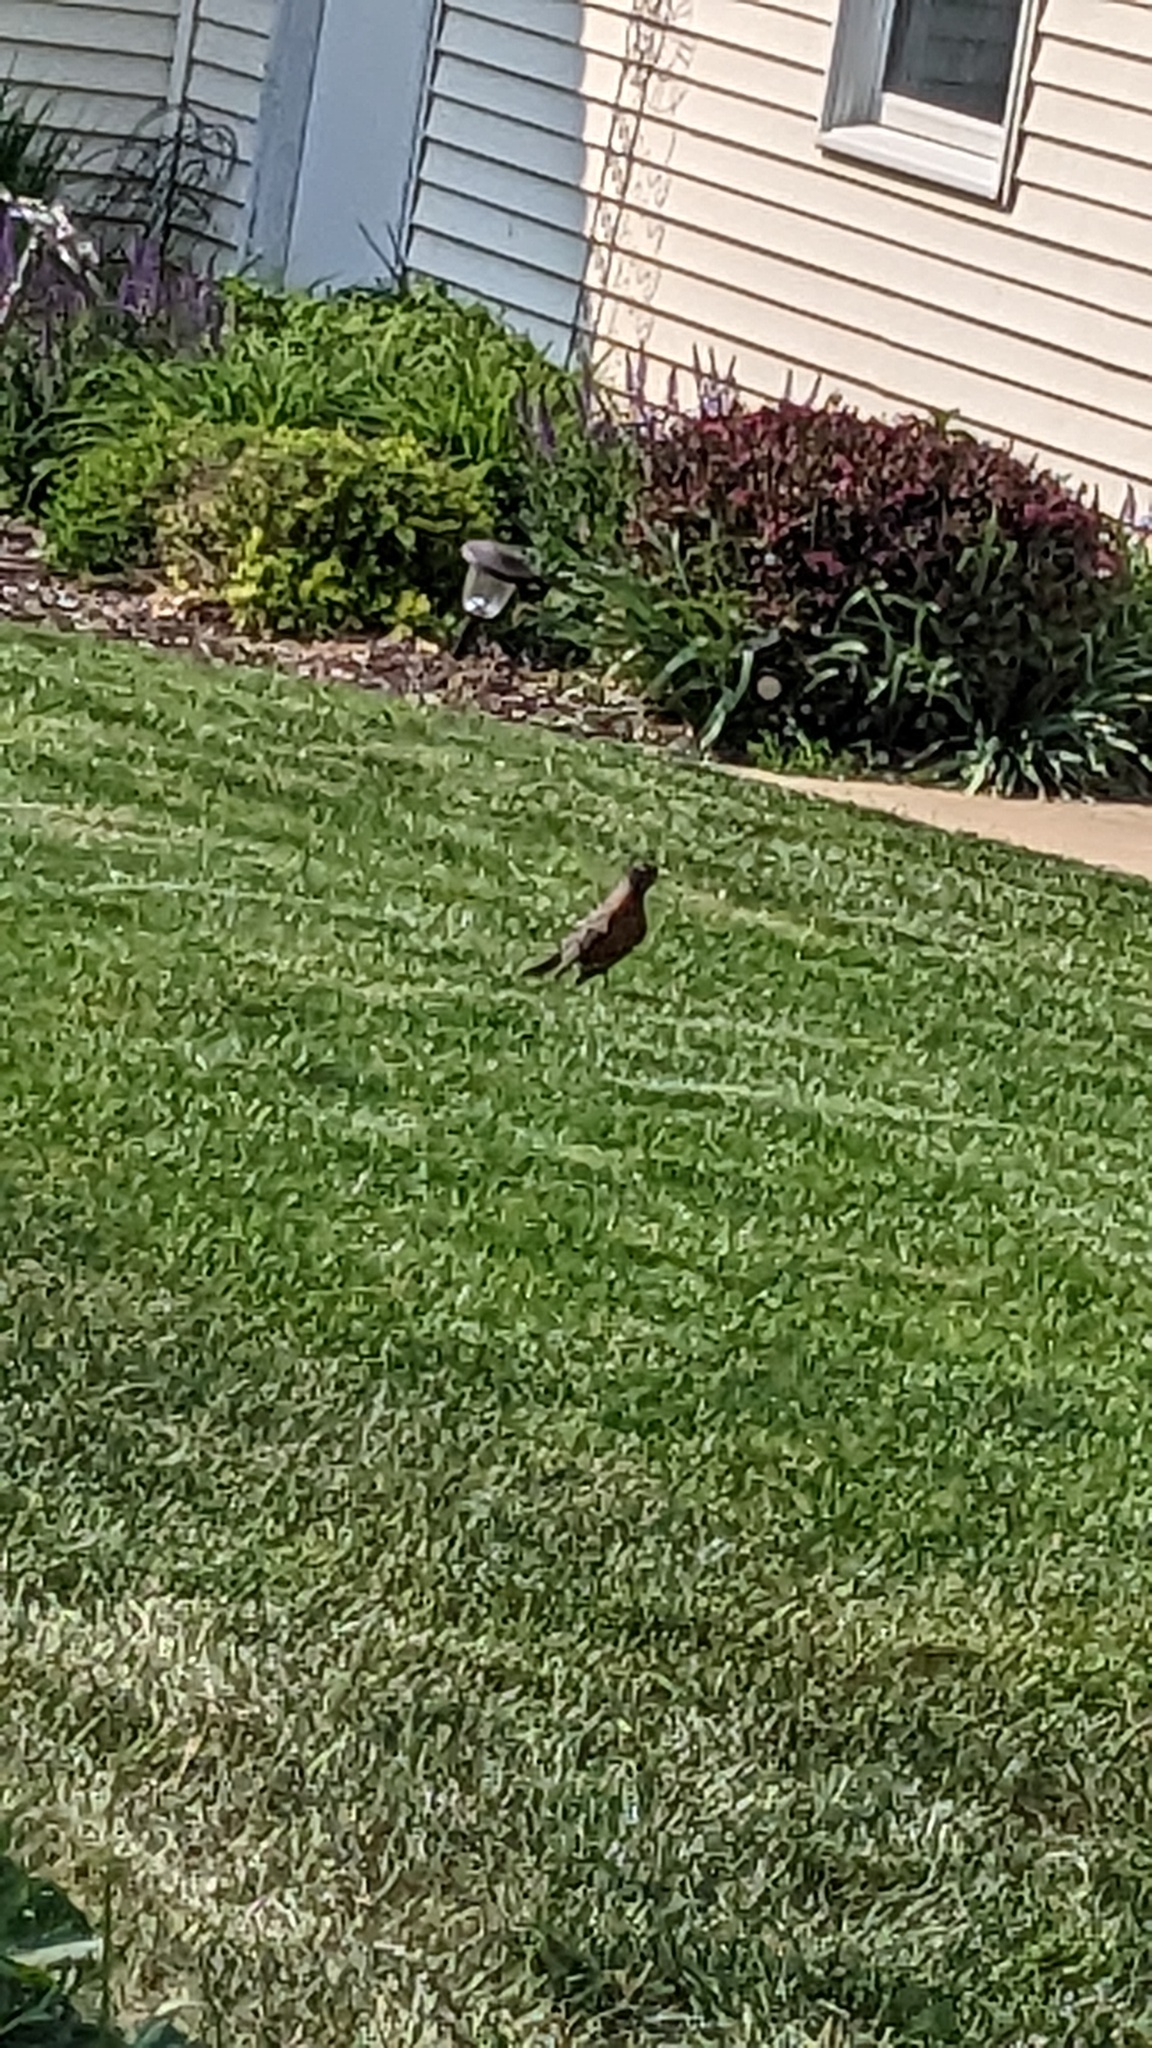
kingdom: Animalia
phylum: Chordata
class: Aves
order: Passeriformes
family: Turdidae
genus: Turdus
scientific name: Turdus migratorius
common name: American robin
